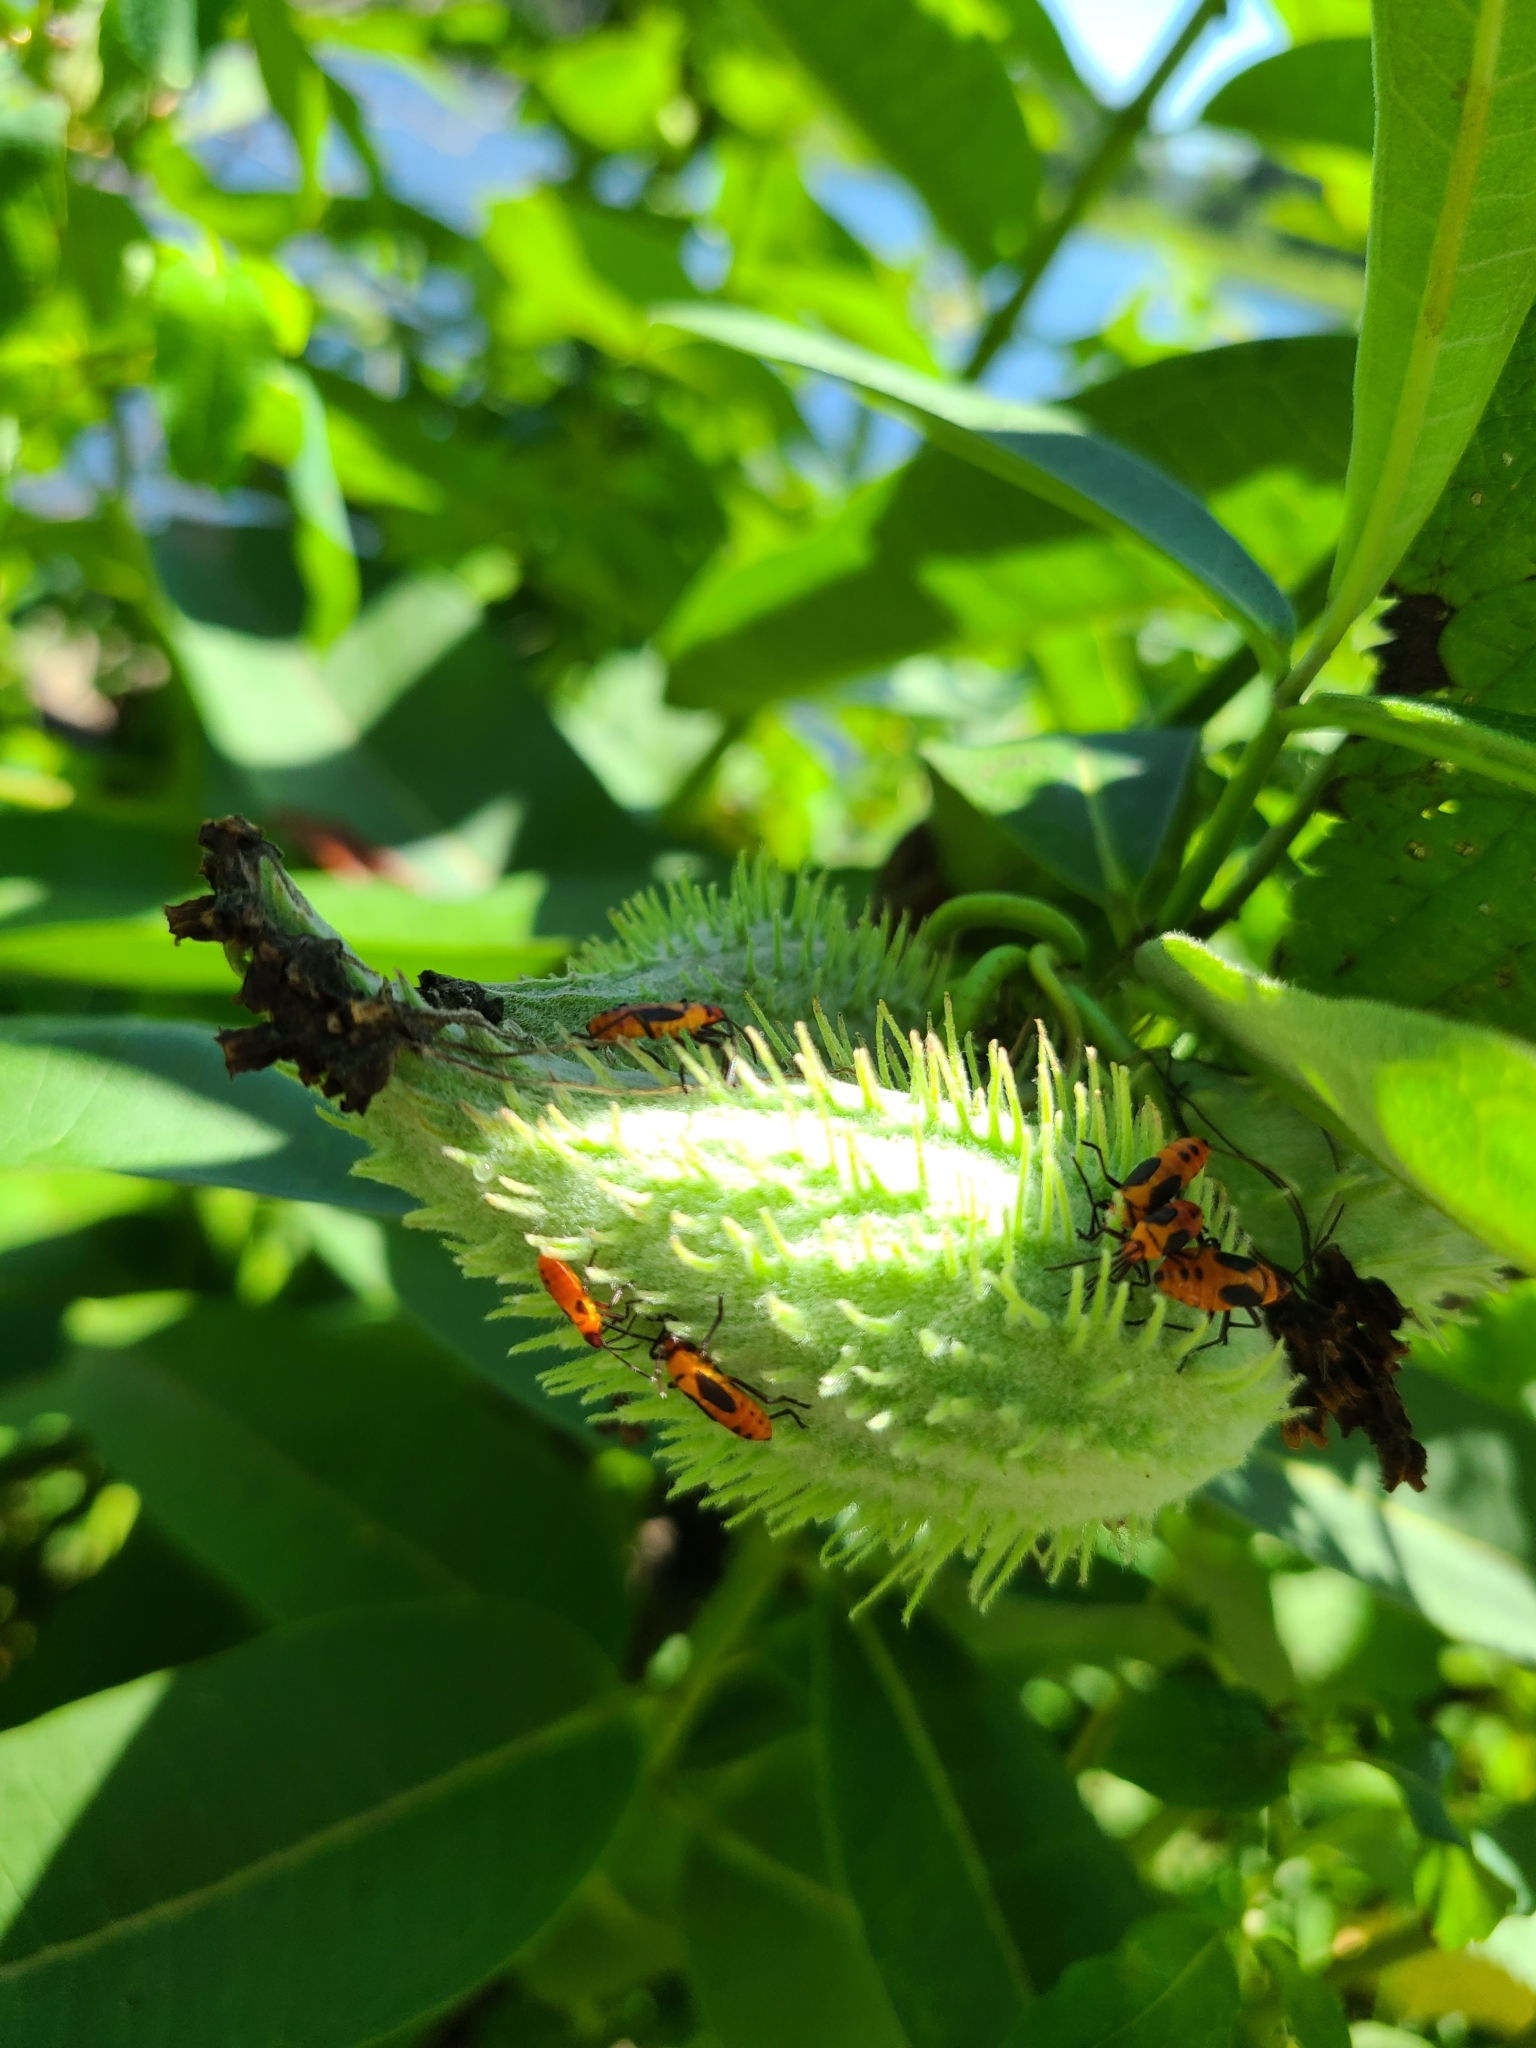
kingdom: Animalia
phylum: Arthropoda
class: Insecta
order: Hemiptera
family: Lygaeidae
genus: Oncopeltus
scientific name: Oncopeltus fasciatus
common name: Large milkweed bug
